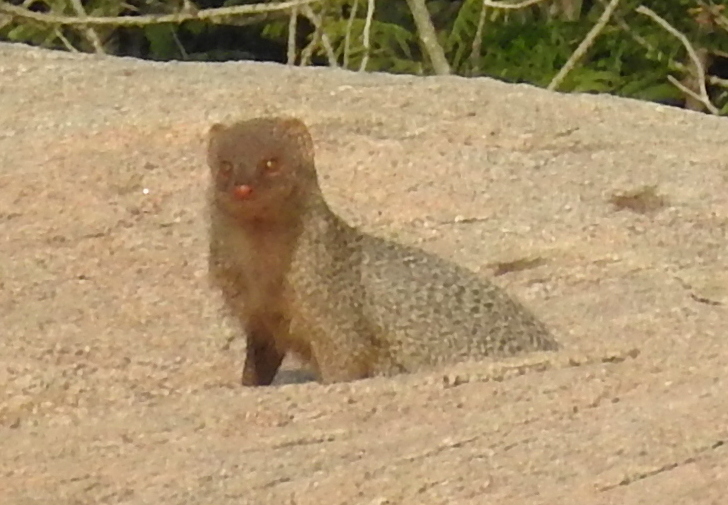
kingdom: Animalia
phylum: Chordata
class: Mammalia
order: Carnivora
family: Herpestidae
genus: Herpestes
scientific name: Herpestes edwardsi
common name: Indian gray mongoose
